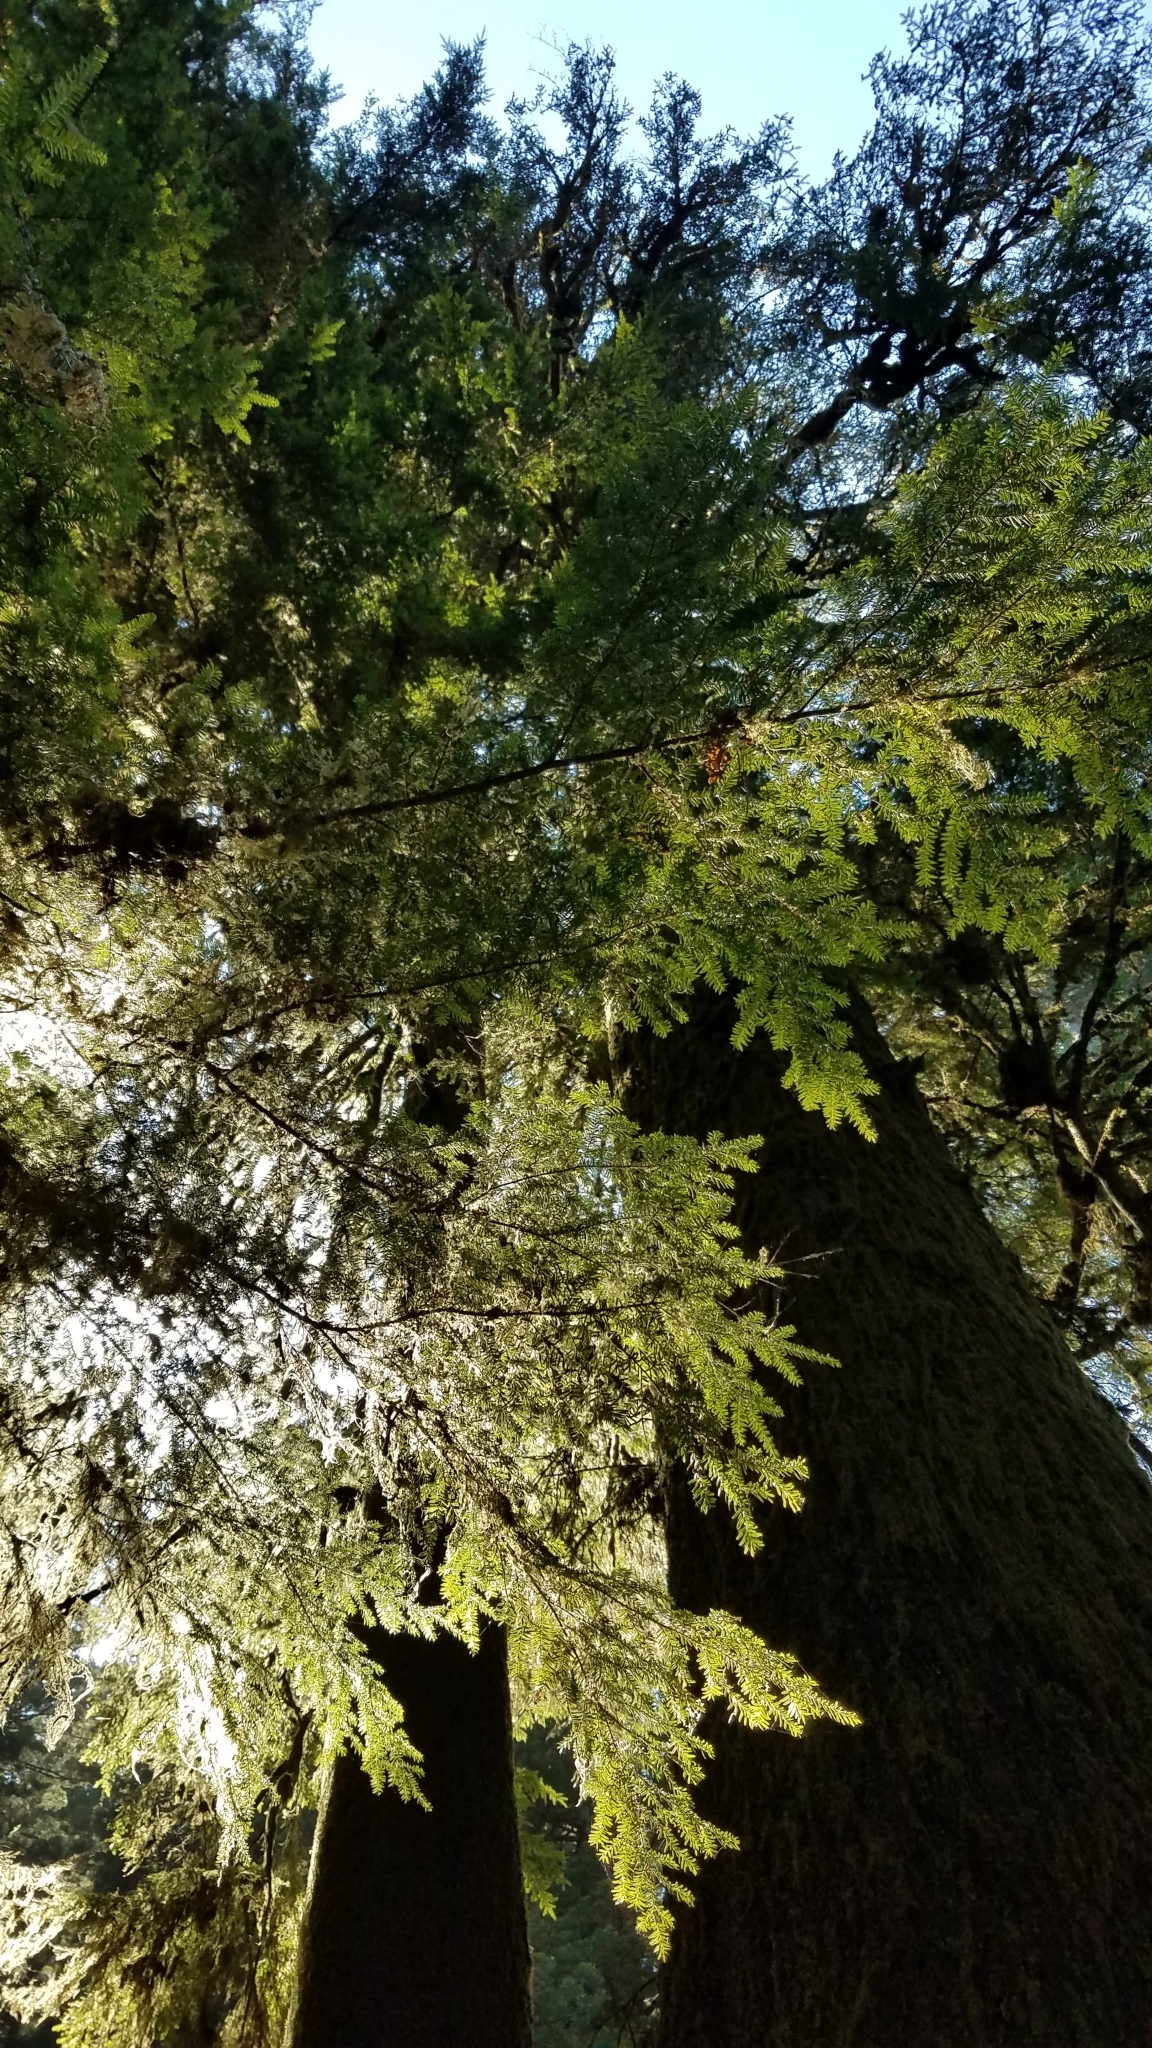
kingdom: Plantae
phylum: Tracheophyta
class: Pinopsida
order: Pinales
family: Pinaceae
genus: Tsuga
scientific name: Tsuga heterophylla
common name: Western hemlock
